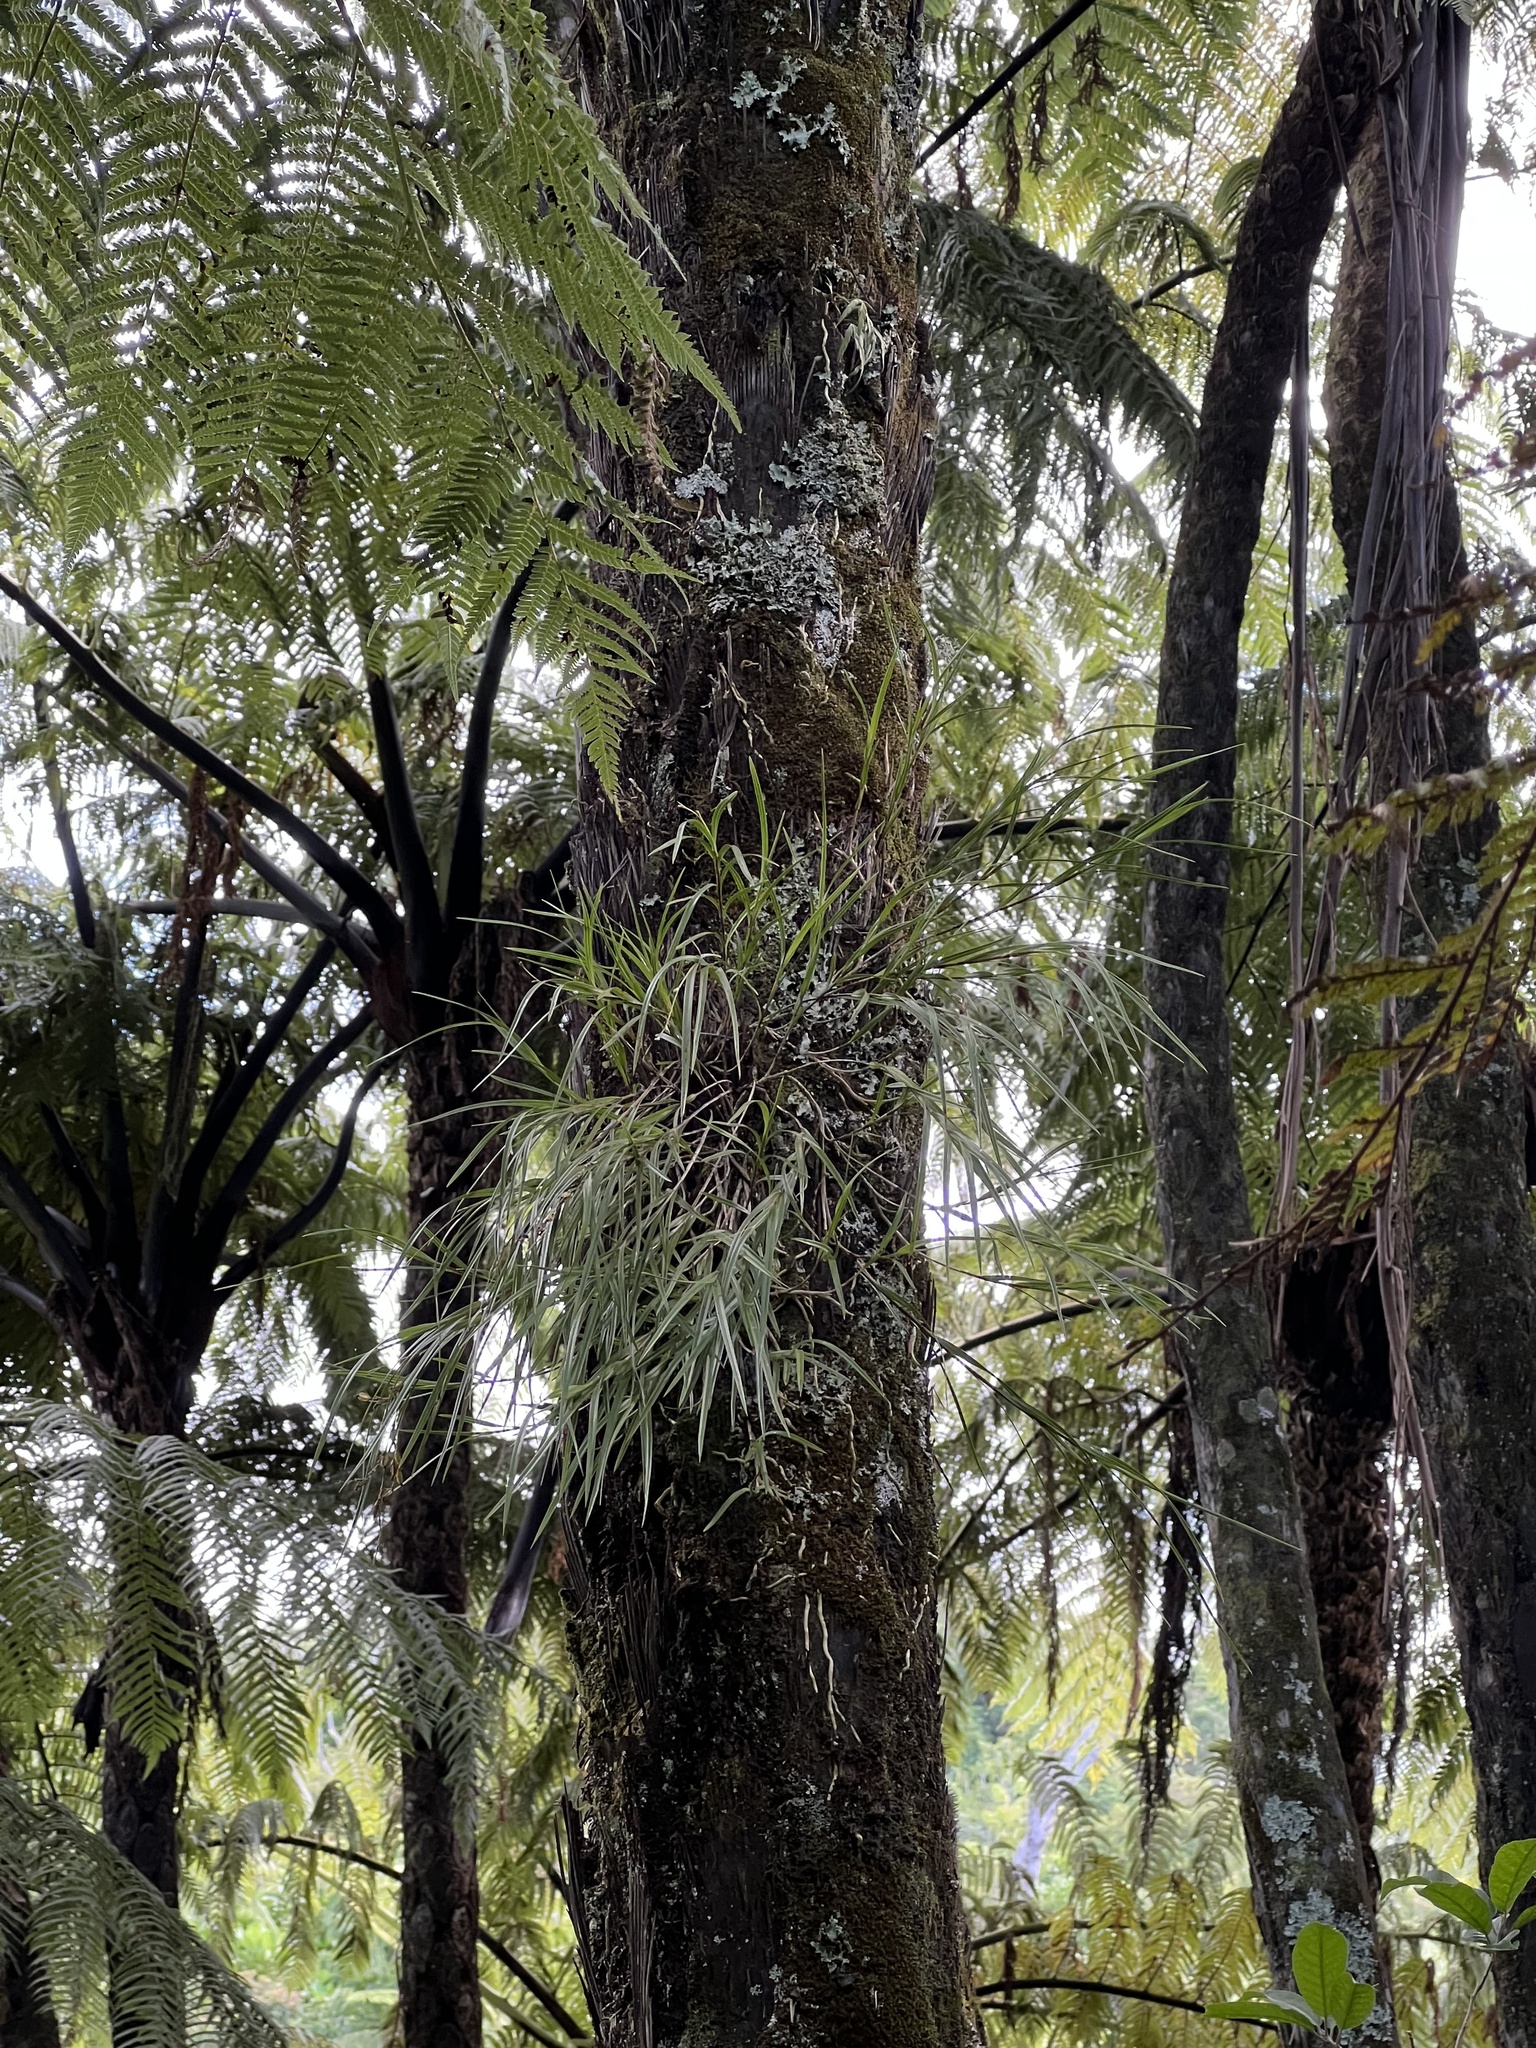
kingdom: Plantae
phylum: Tracheophyta
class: Liliopsida
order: Asparagales
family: Orchidaceae
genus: Earina
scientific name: Earina mucronata
